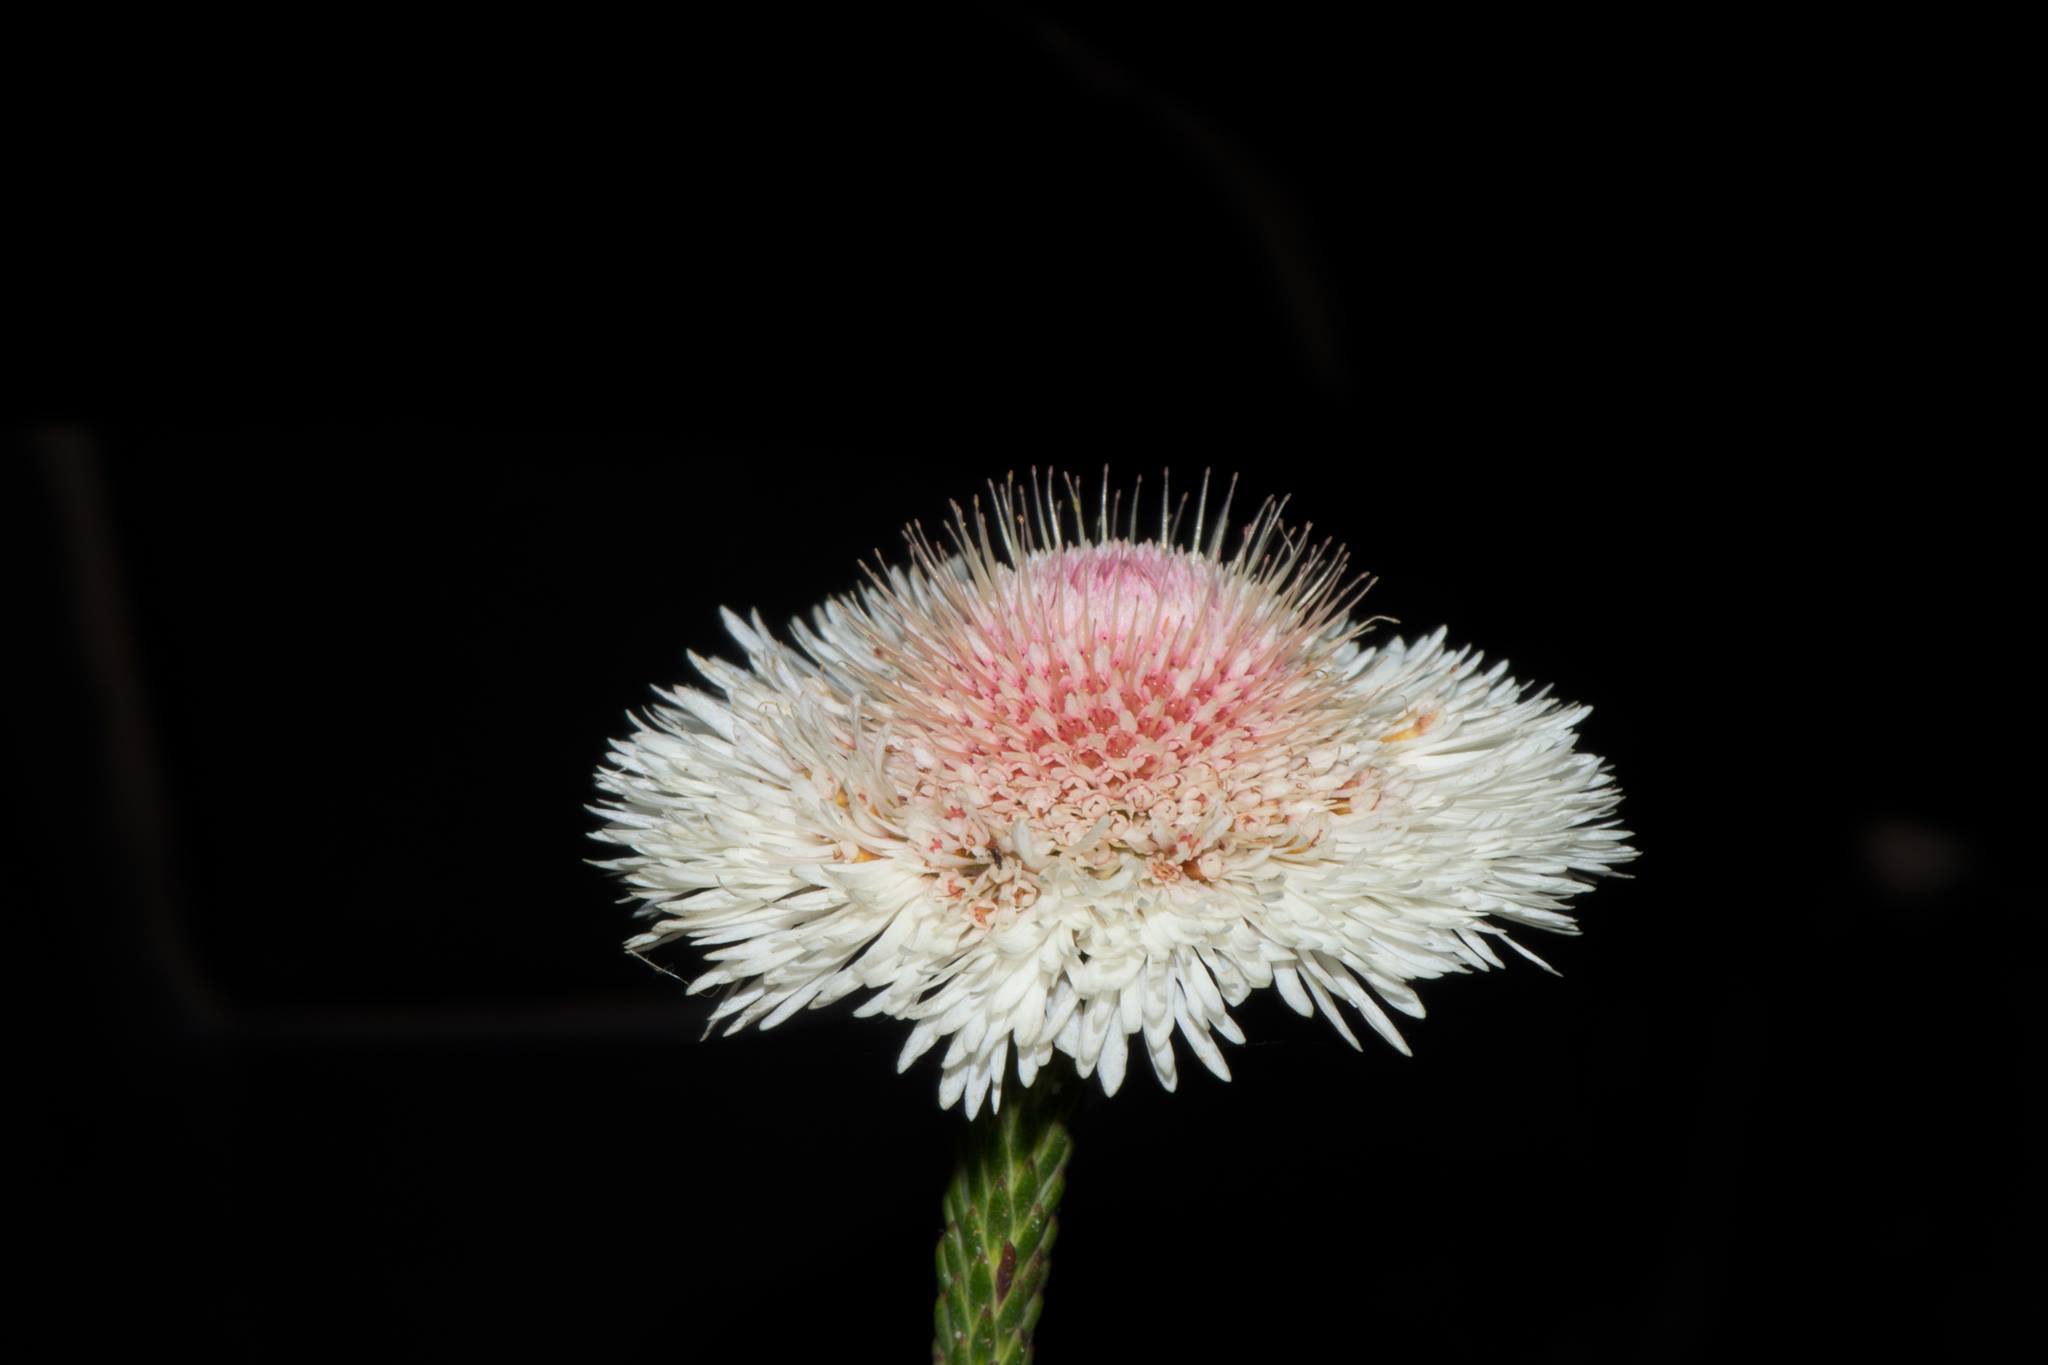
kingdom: Plantae
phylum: Tracheophyta
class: Magnoliopsida
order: Myrtales
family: Myrtaceae
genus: Actinodium
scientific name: Actinodium cunninghamii
